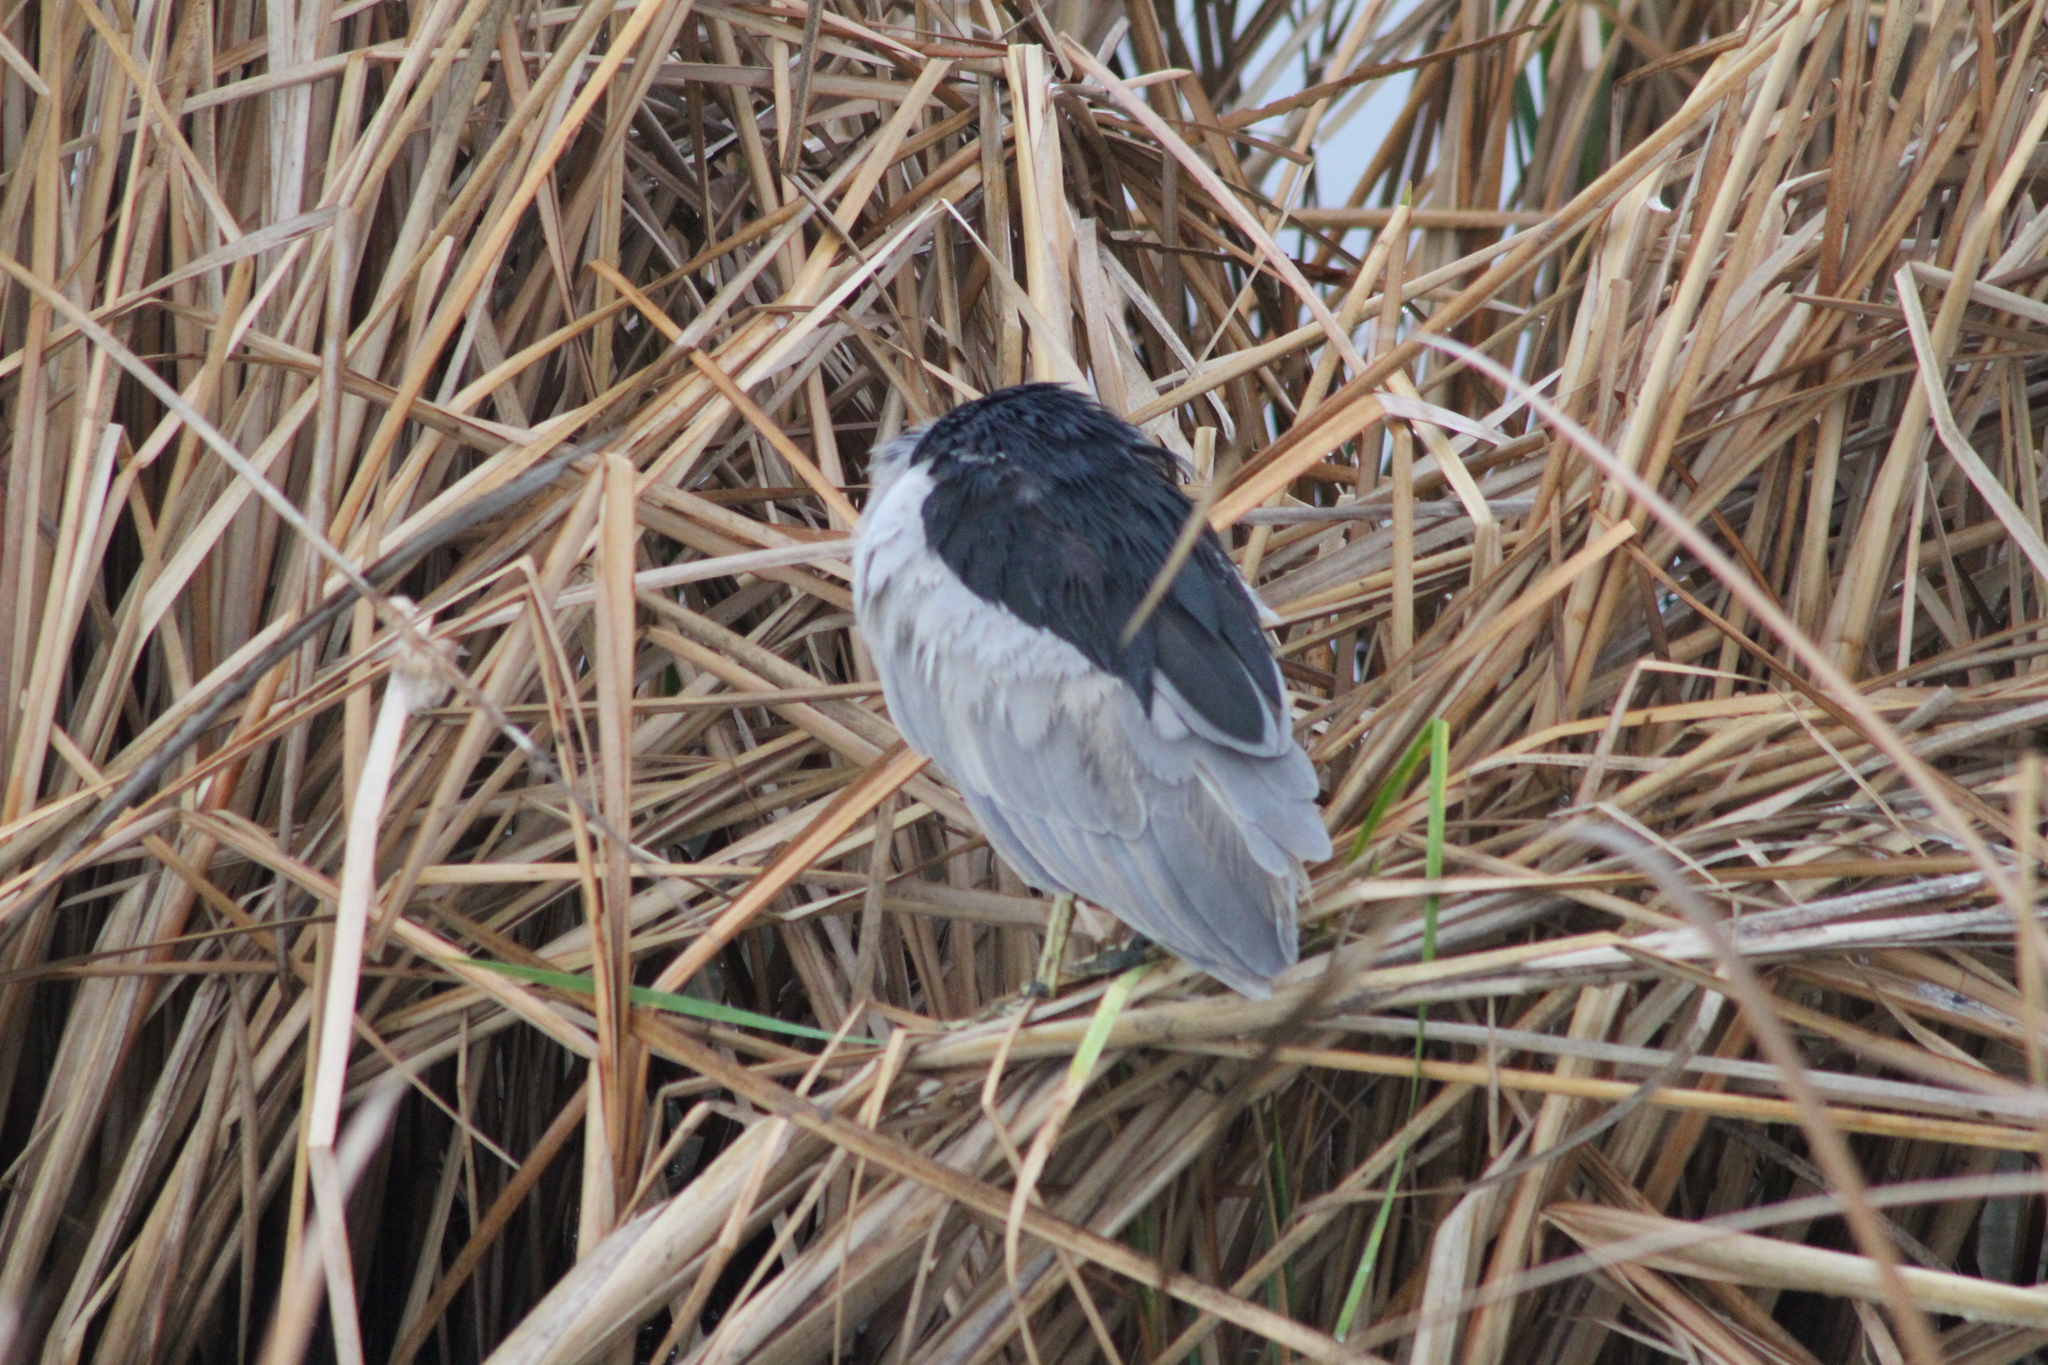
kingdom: Animalia
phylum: Chordata
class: Aves
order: Pelecaniformes
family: Ardeidae
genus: Nycticorax
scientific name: Nycticorax nycticorax
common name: Black-crowned night heron
